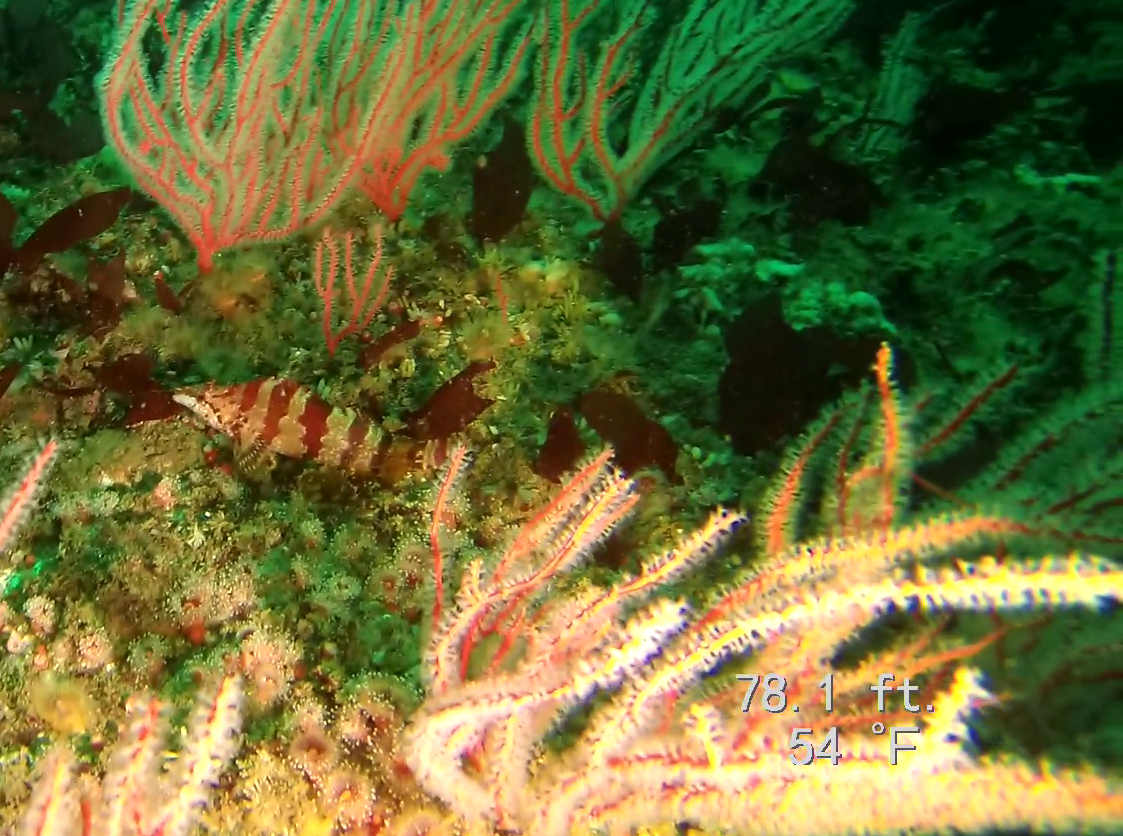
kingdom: Animalia
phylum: Chordata
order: Scorpaeniformes
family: Hexagrammidae
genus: Oxylebius
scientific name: Oxylebius pictus
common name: Painted greenling
